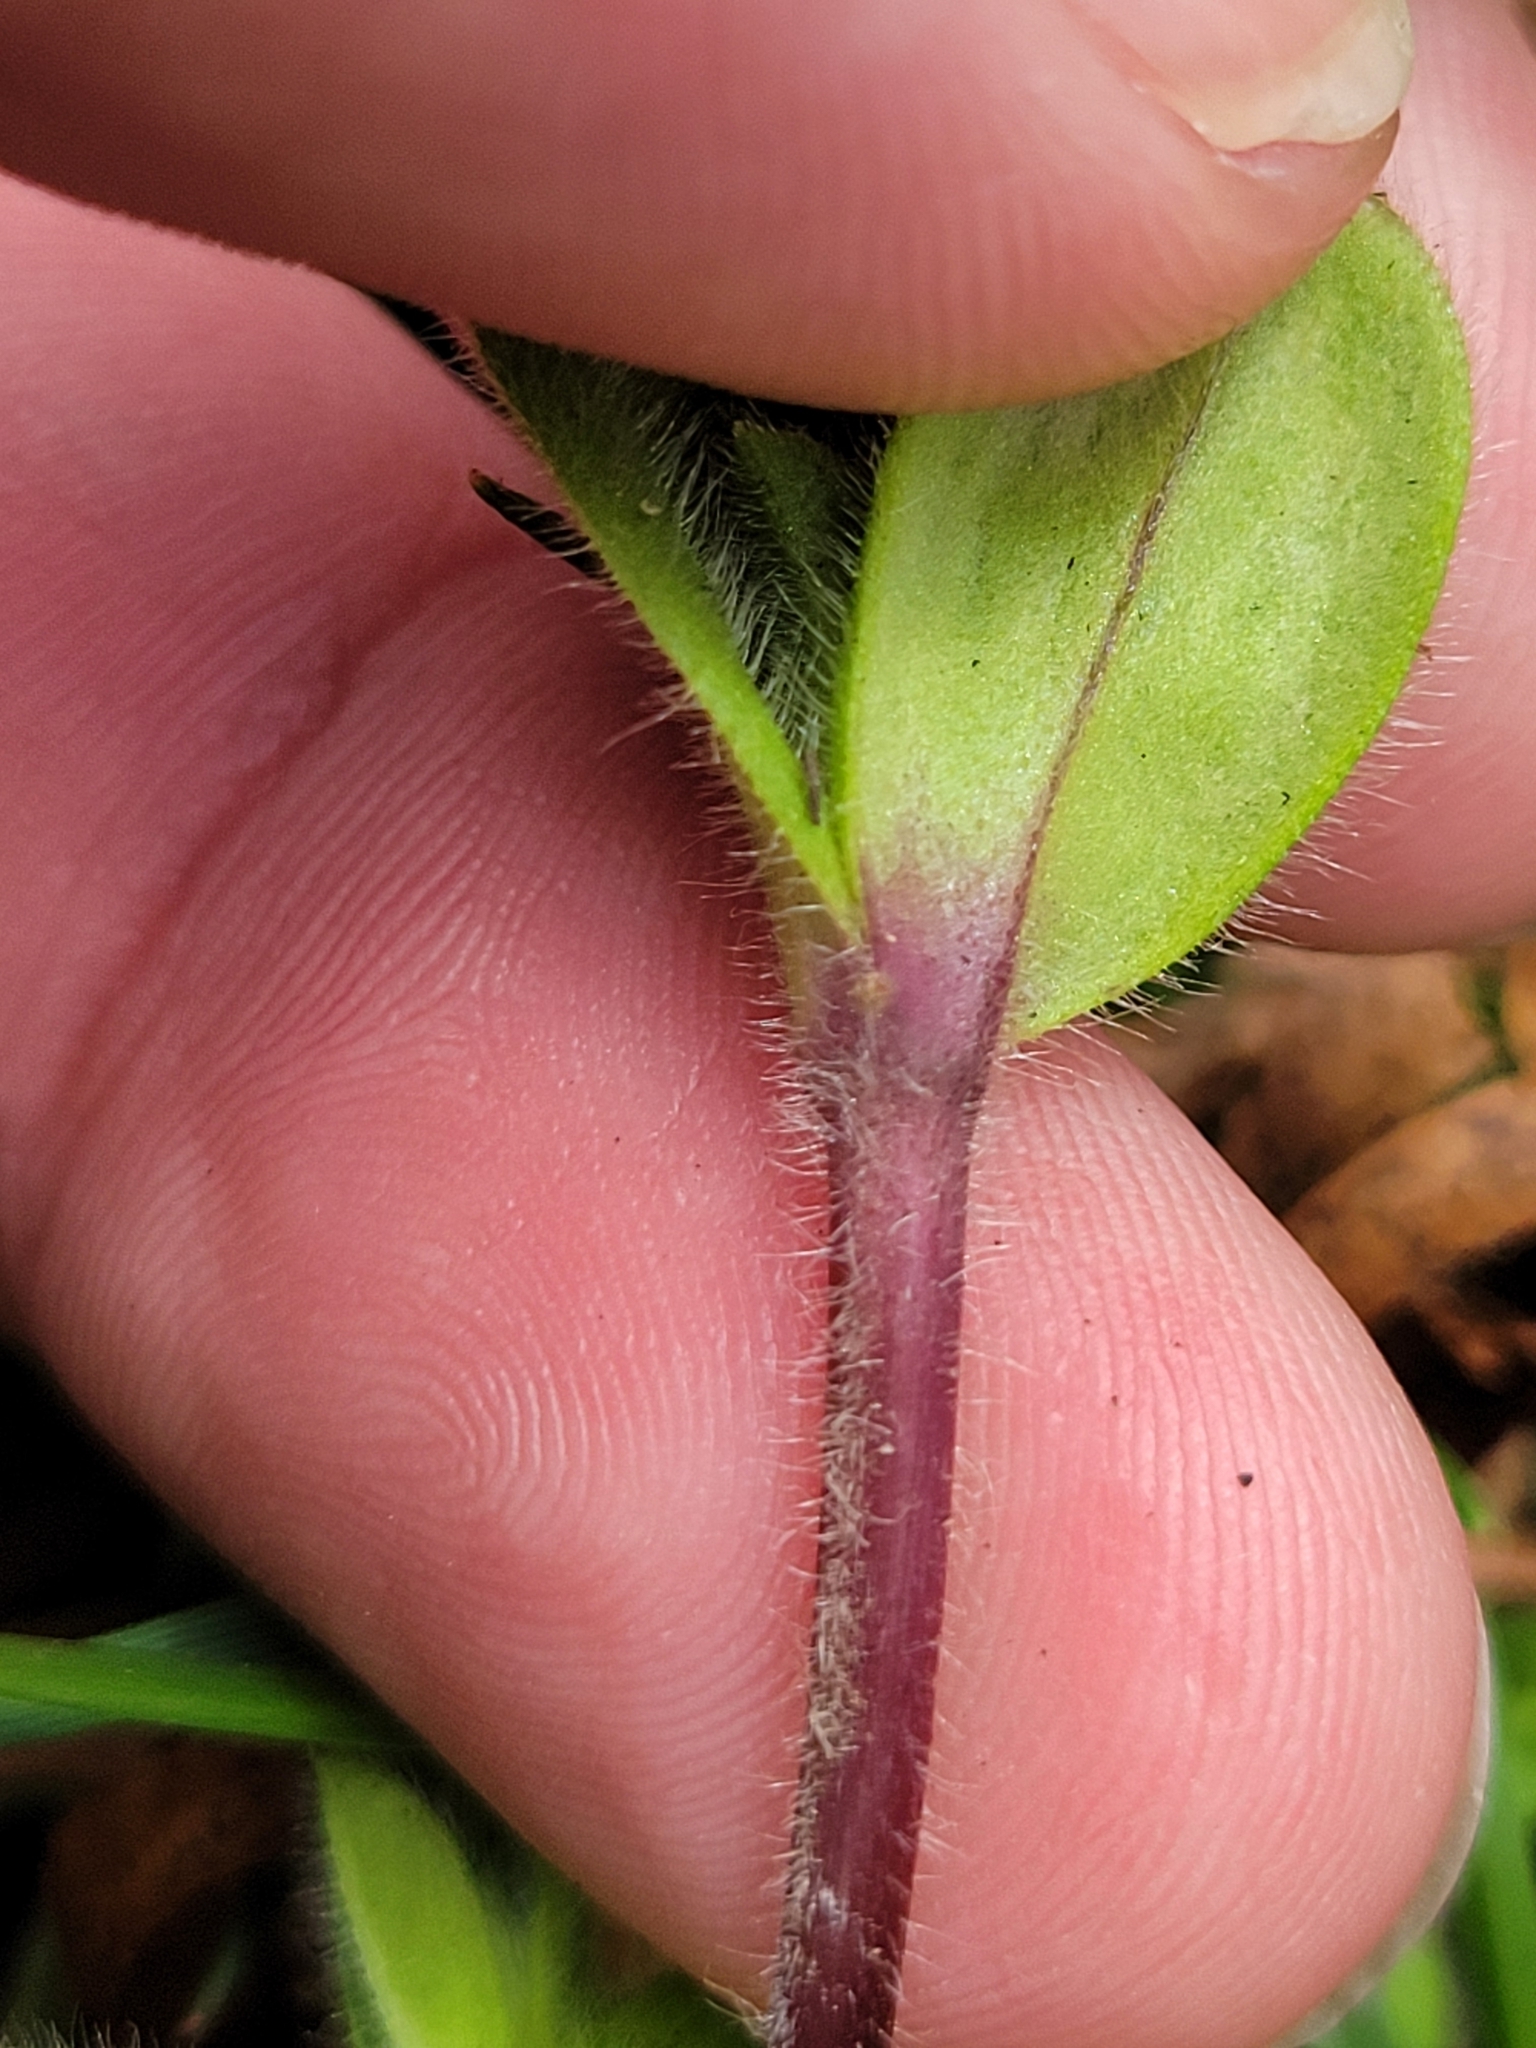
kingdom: Plantae
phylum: Tracheophyta
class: Magnoliopsida
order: Caryophyllales
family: Caryophyllaceae
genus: Cerastium
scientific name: Cerastium glomeratum
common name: Sticky chickweed
